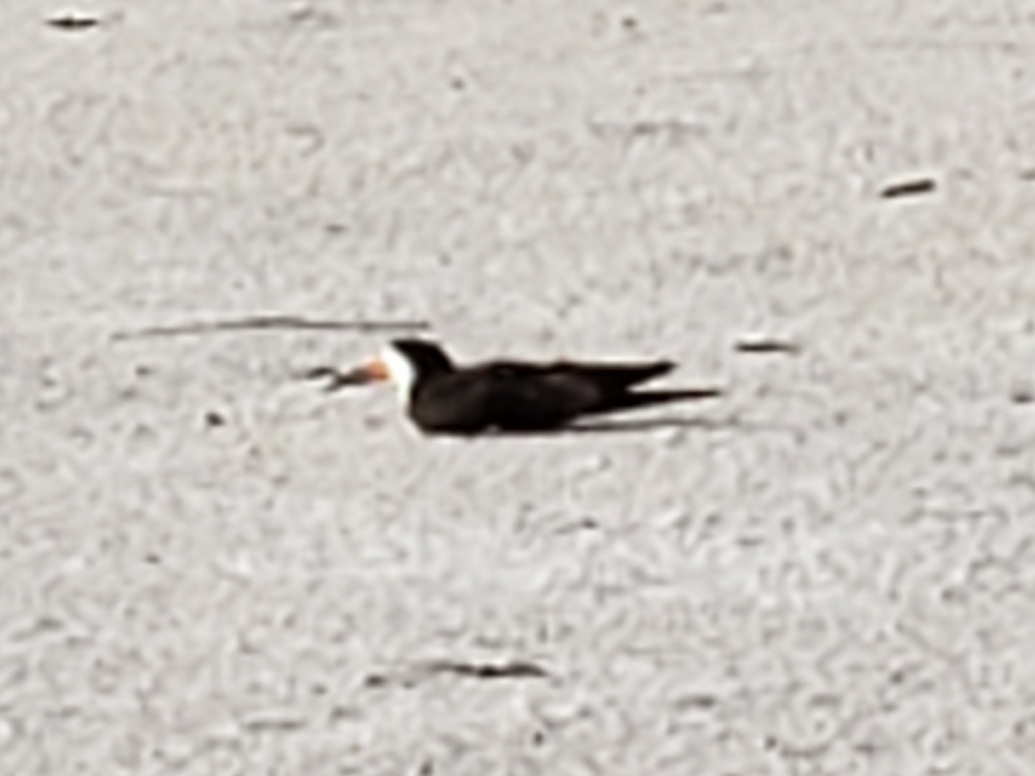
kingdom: Animalia
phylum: Chordata
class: Aves
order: Charadriiformes
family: Laridae
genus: Rynchops
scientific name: Rynchops niger
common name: Black skimmer
